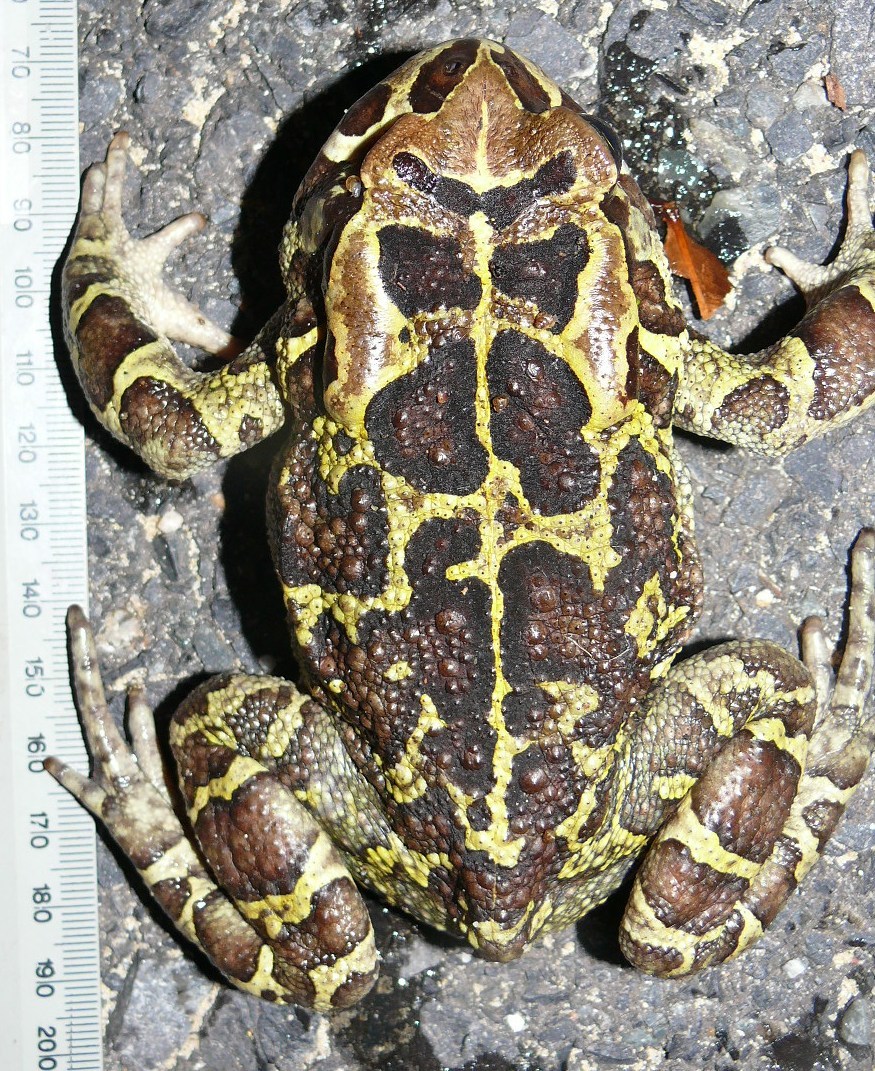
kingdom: Animalia
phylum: Chordata
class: Amphibia
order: Anura
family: Bufonidae
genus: Sclerophrys
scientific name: Sclerophrys pantherina
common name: Panther toad
